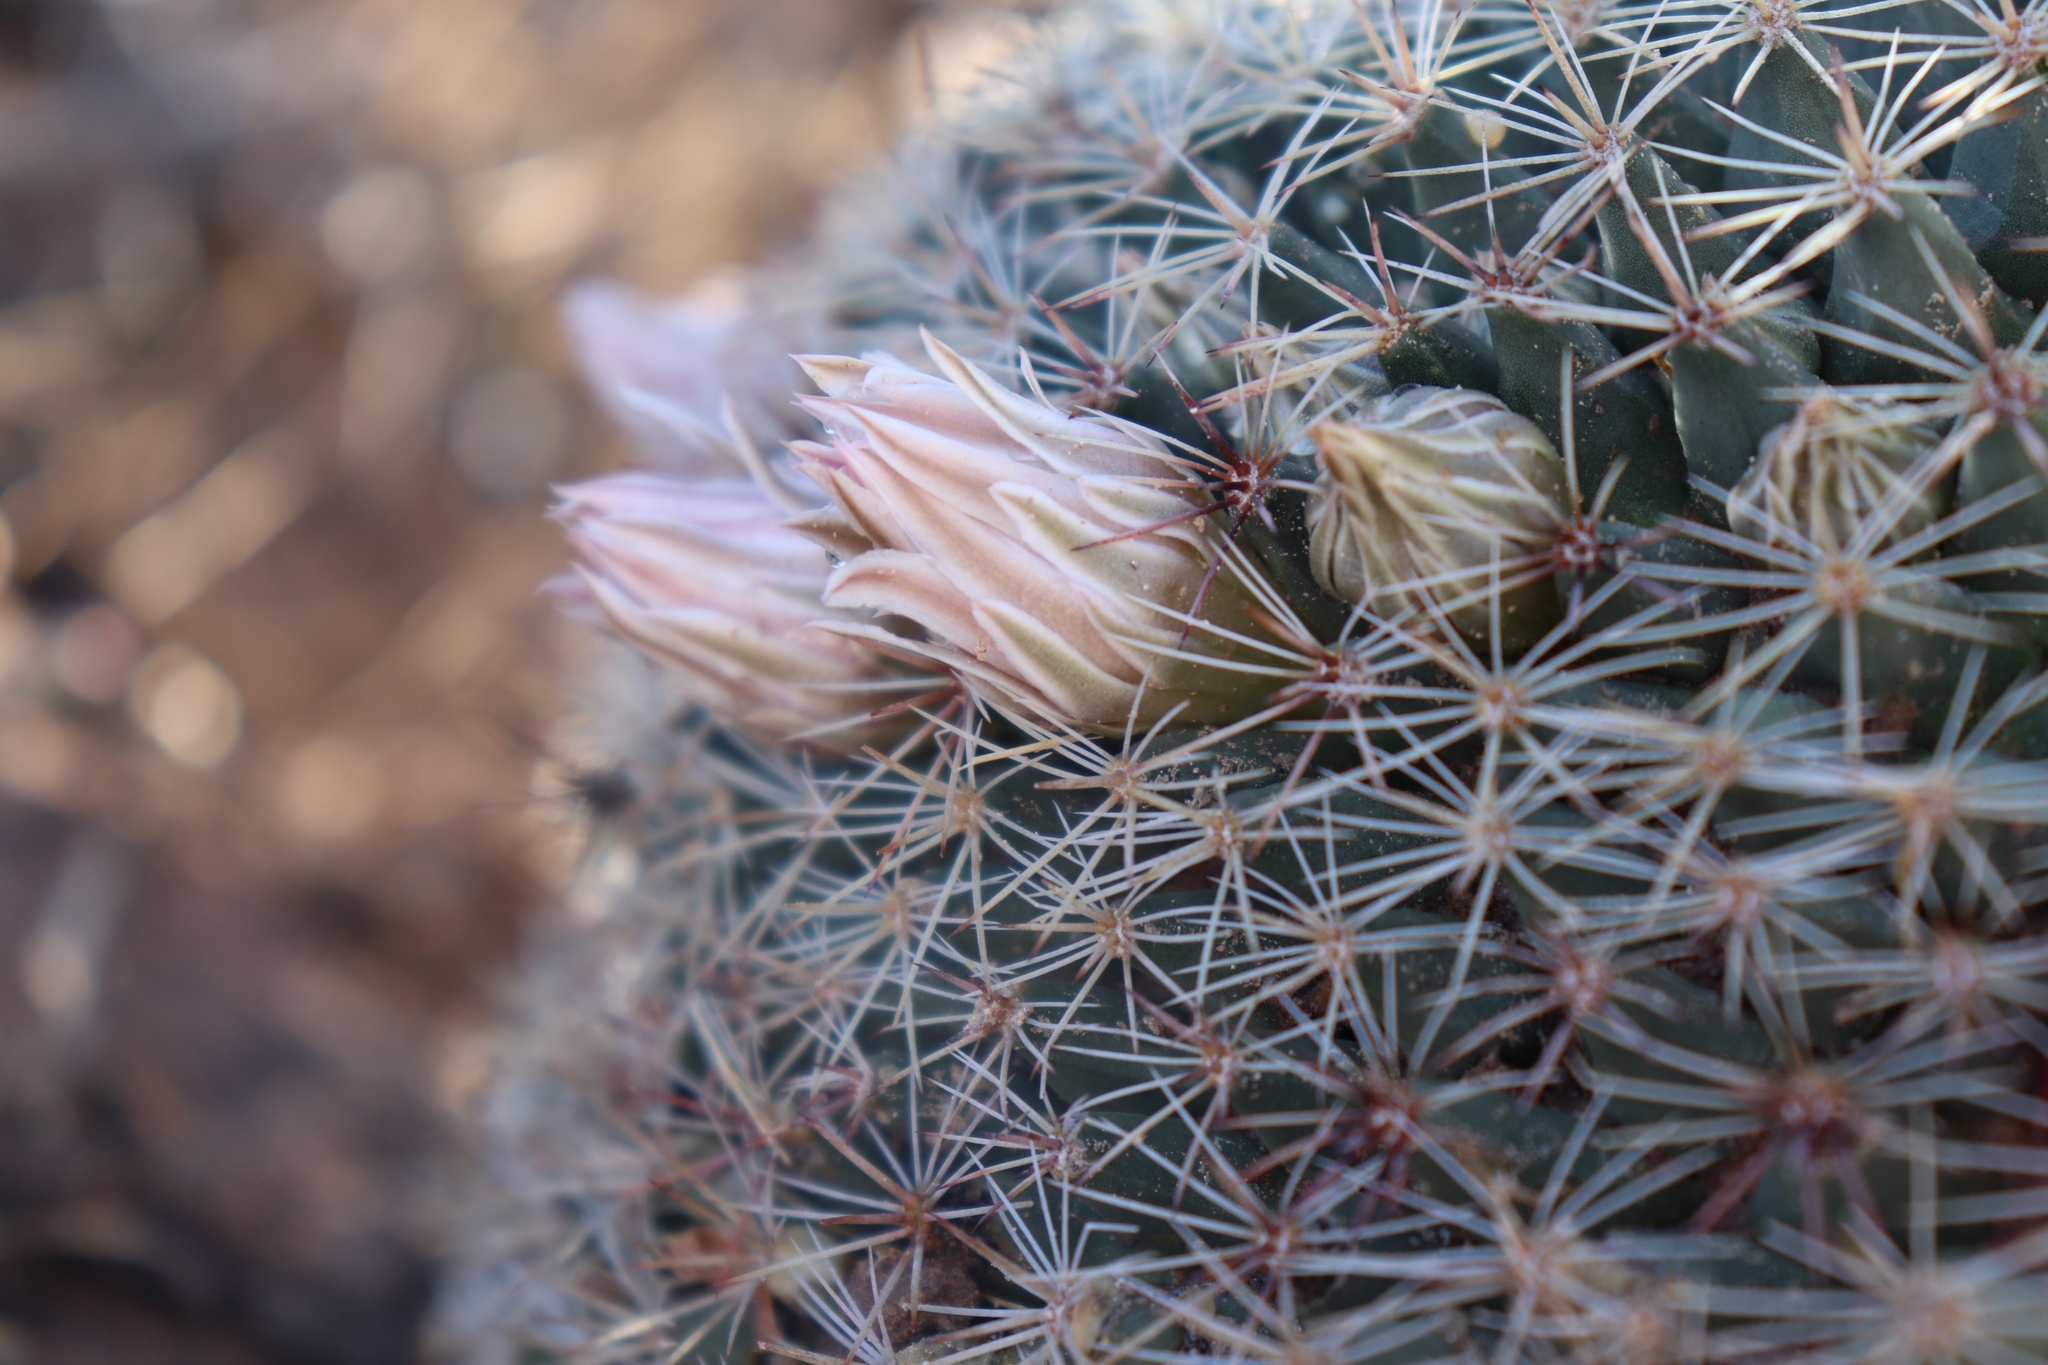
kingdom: Plantae
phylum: Tracheophyta
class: Magnoliopsida
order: Caryophyllales
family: Cactaceae
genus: Mammillaria
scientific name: Mammillaria grusonii
